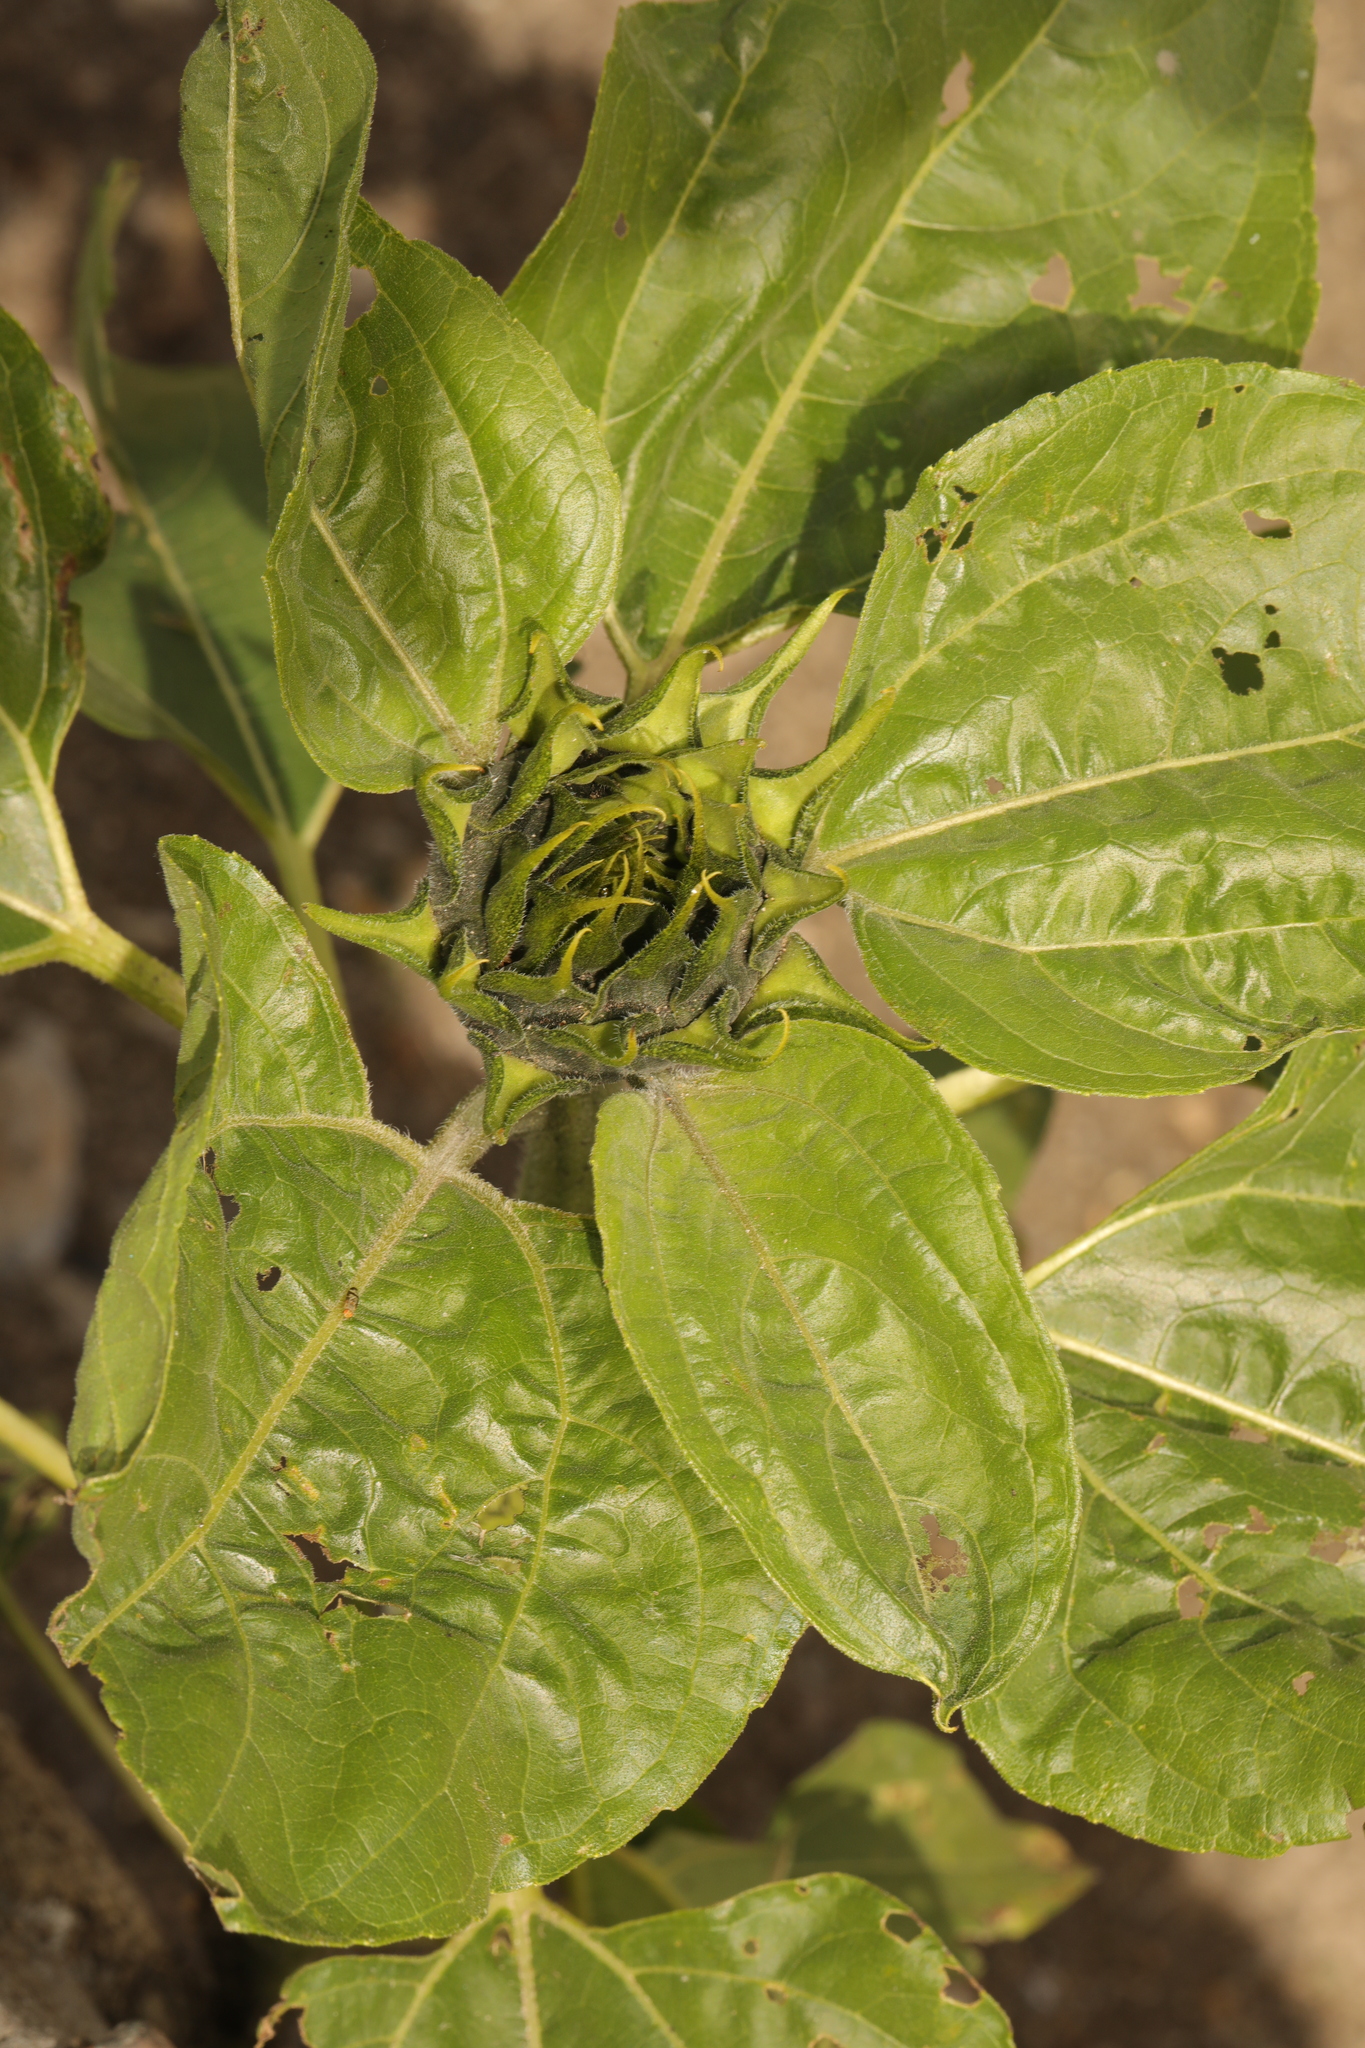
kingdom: Plantae
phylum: Tracheophyta
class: Magnoliopsida
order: Asterales
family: Asteraceae
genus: Helianthus
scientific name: Helianthus annuus
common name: Sunflower
